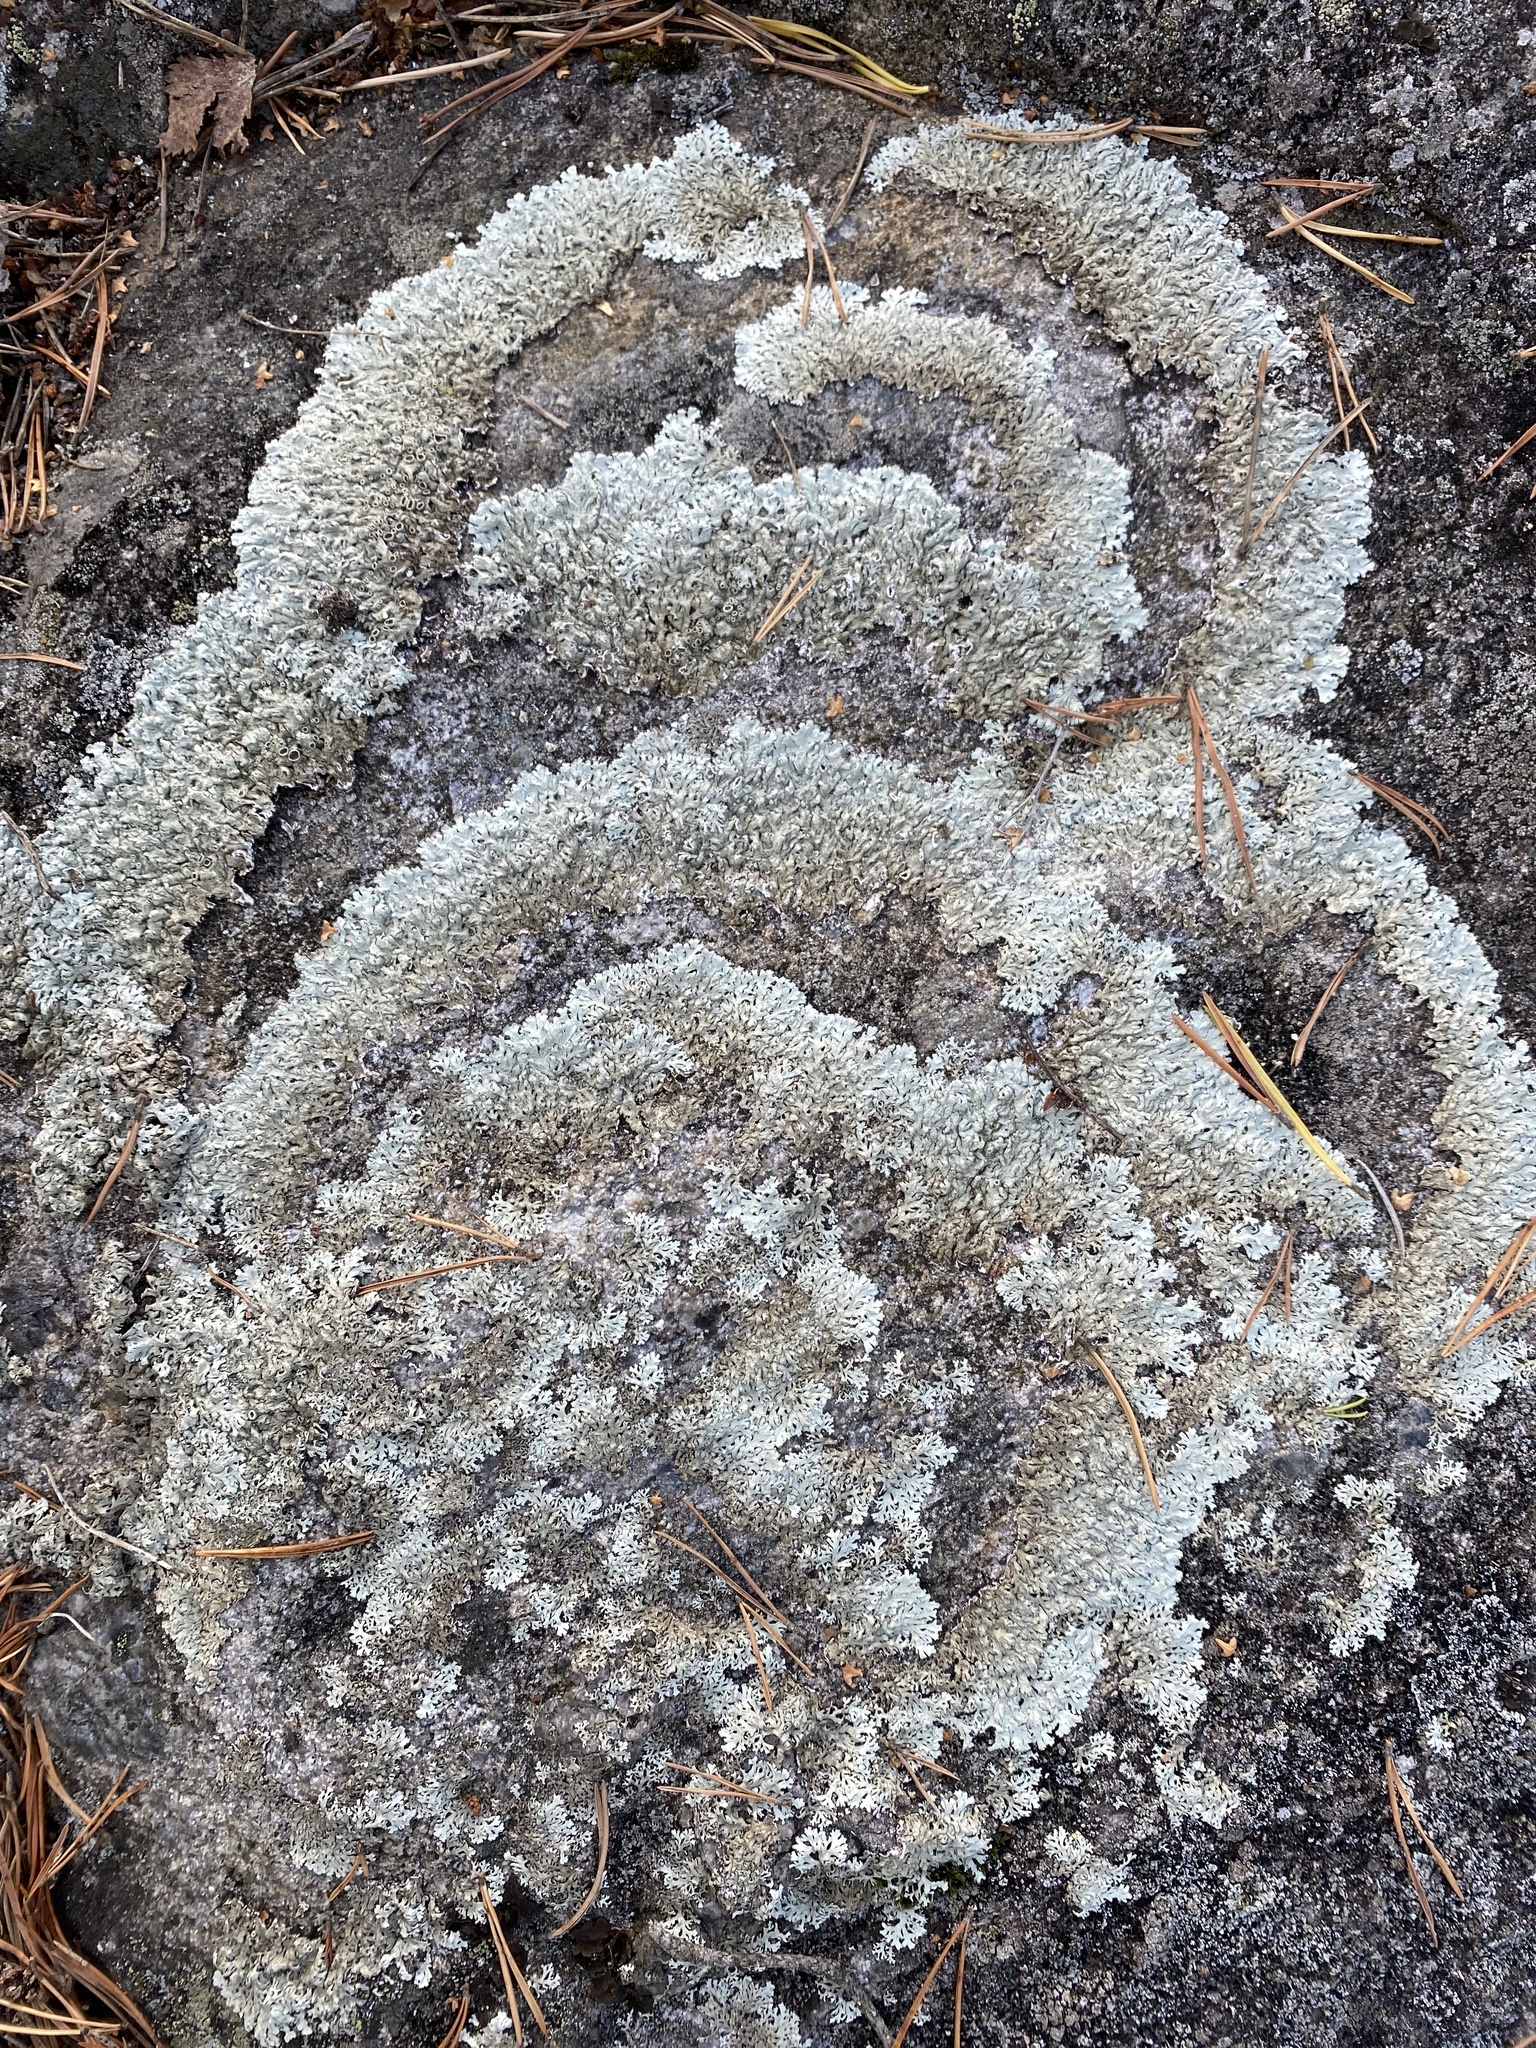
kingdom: Fungi
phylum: Ascomycota
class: Lecanoromycetes
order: Lecanorales
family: Parmeliaceae
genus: Arctoparmelia
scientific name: Arctoparmelia centrifuga
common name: Concentric ring lichen
